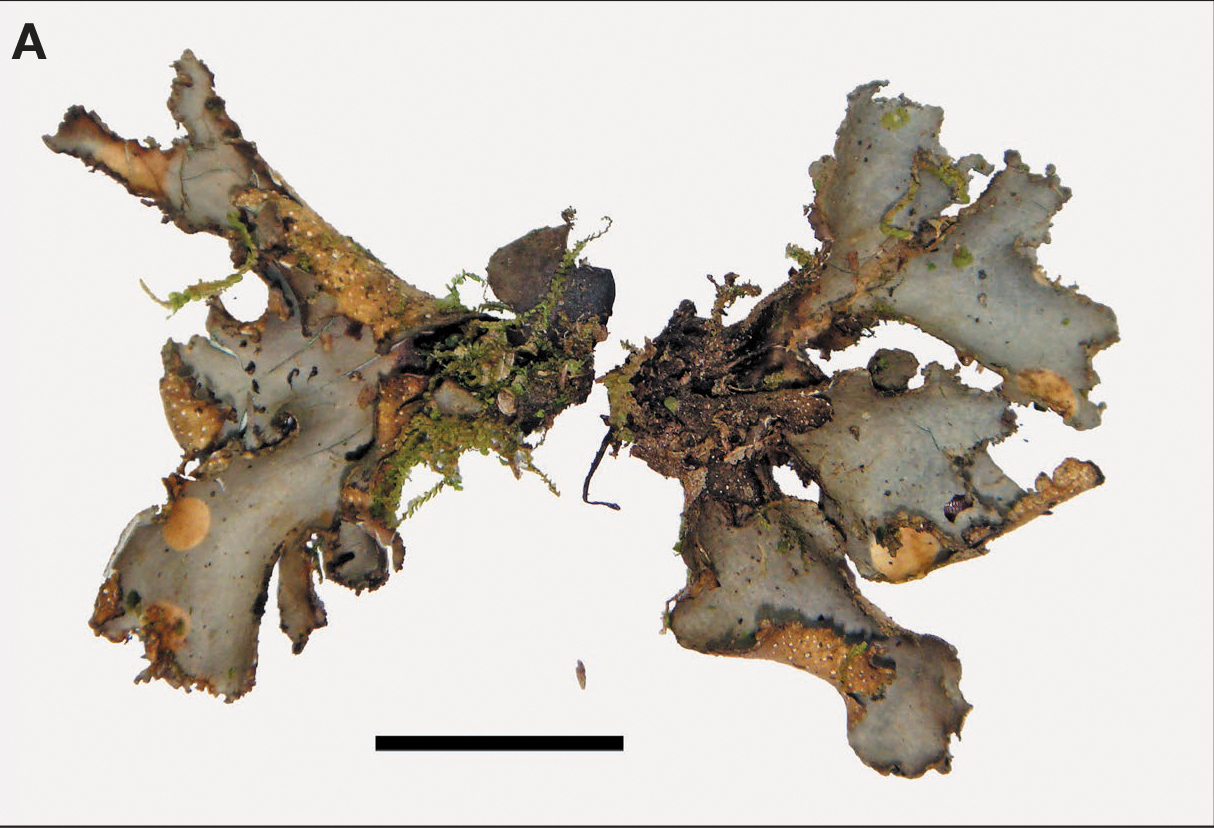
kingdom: Fungi
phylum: Ascomycota
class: Lecanoromycetes
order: Peltigerales
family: Lobariaceae
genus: Sticta
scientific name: Sticta brevipes
